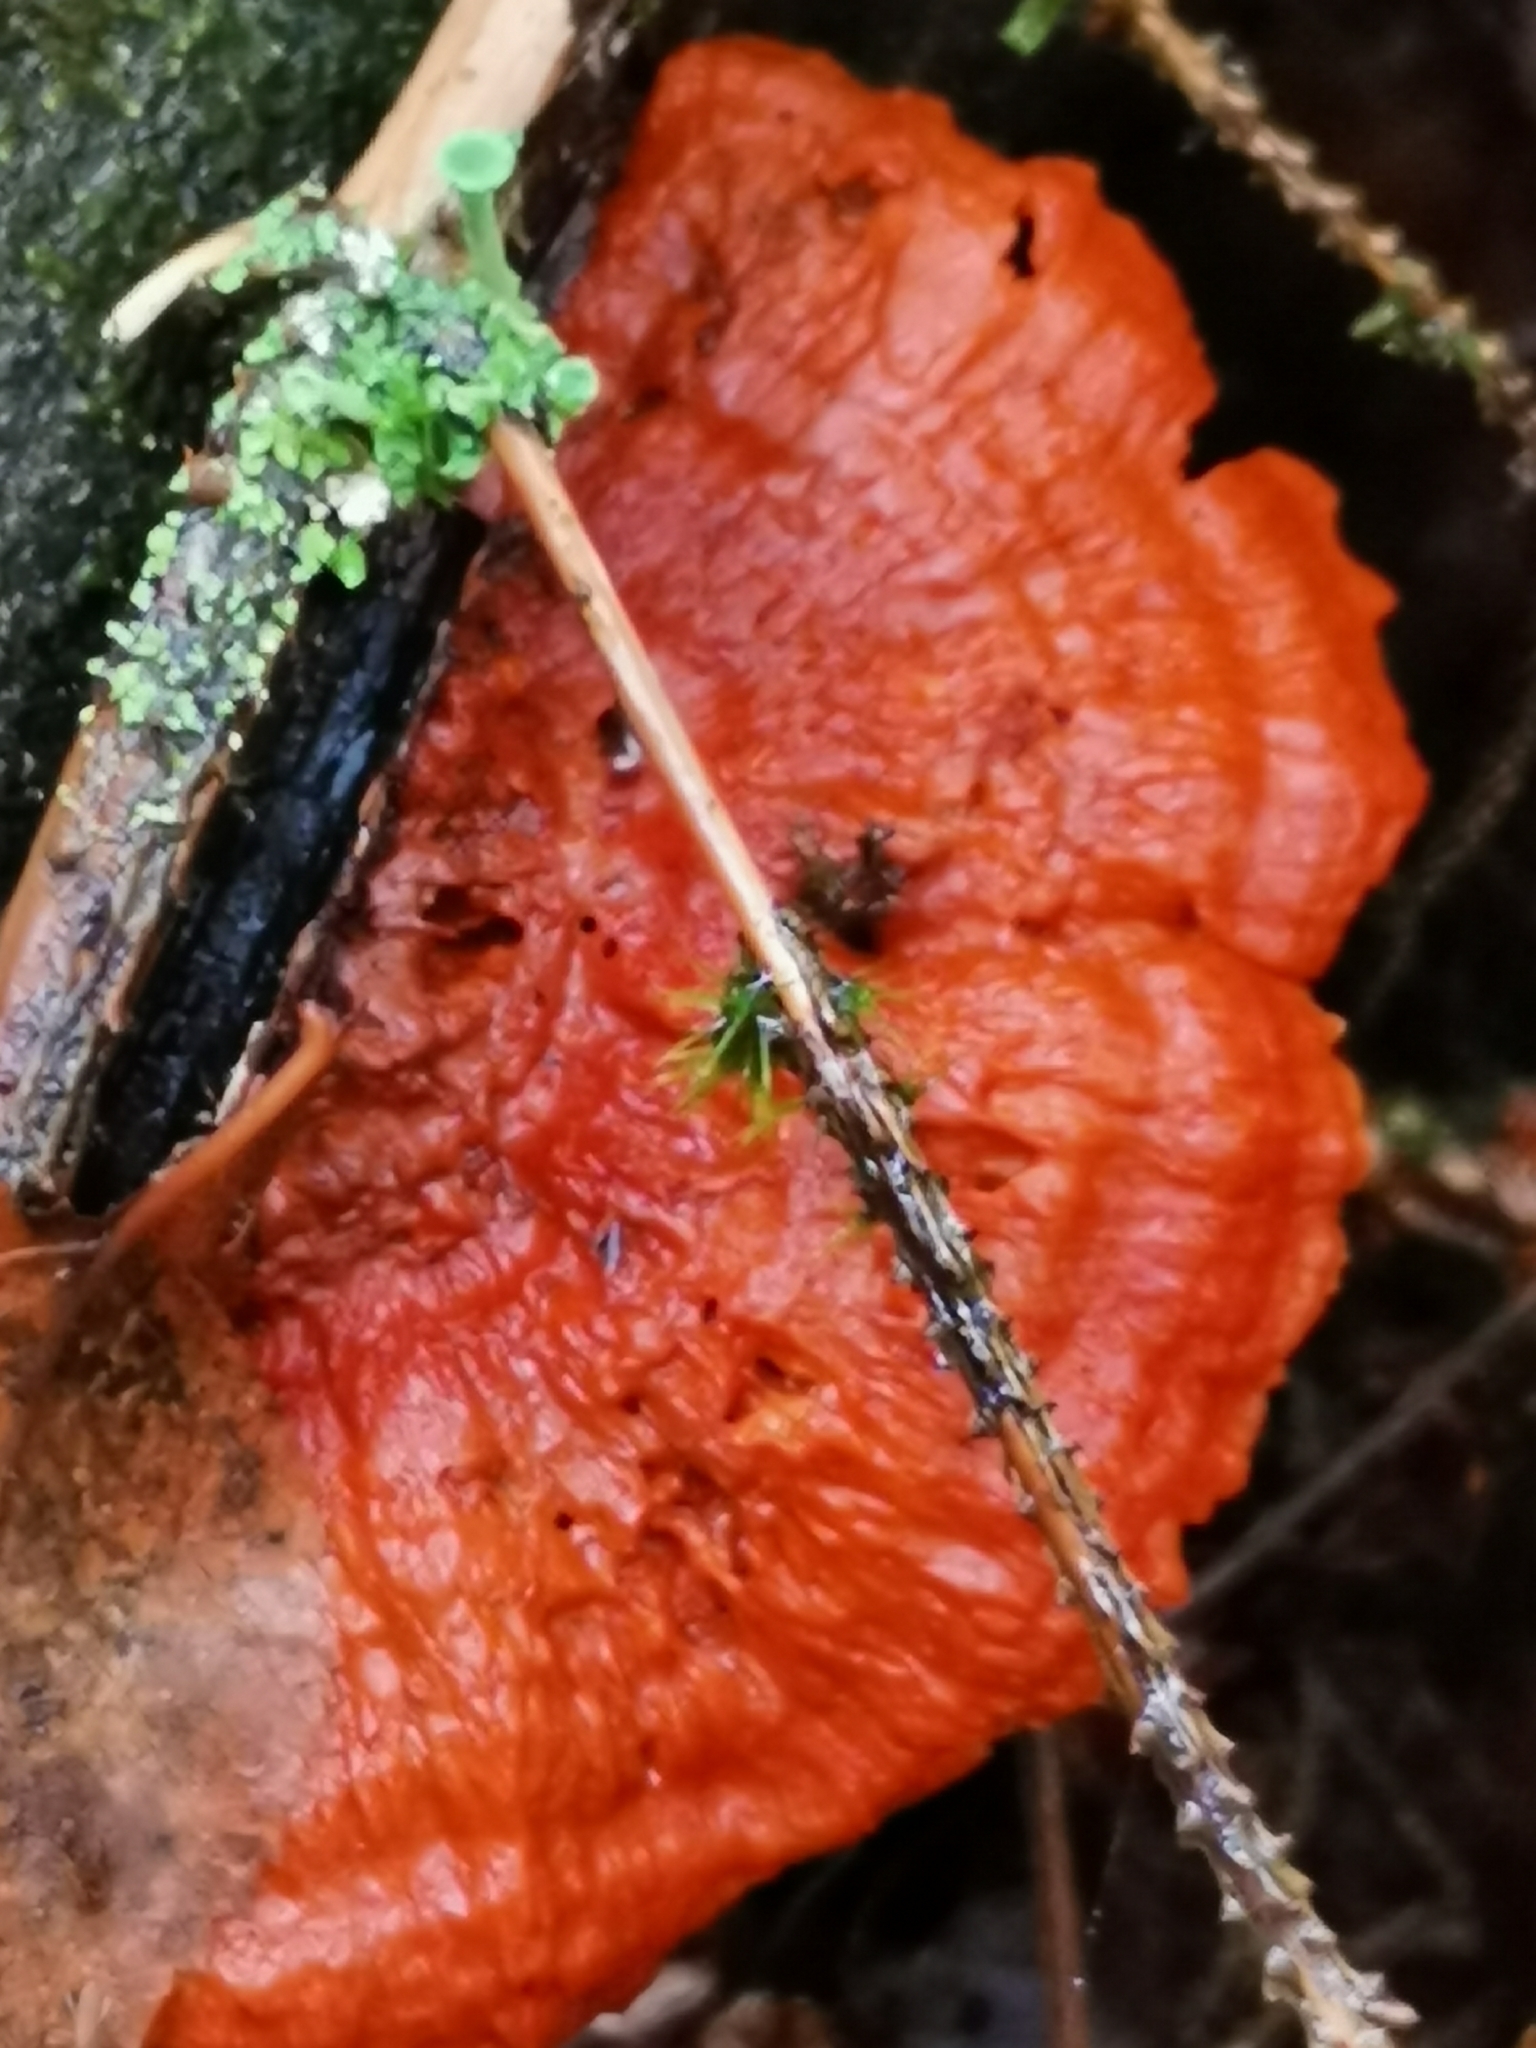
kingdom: Fungi
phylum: Basidiomycota
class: Agaricomycetes
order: Polyporales
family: Pycnoporellaceae
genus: Pycnoporellus
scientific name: Pycnoporellus fulgens
